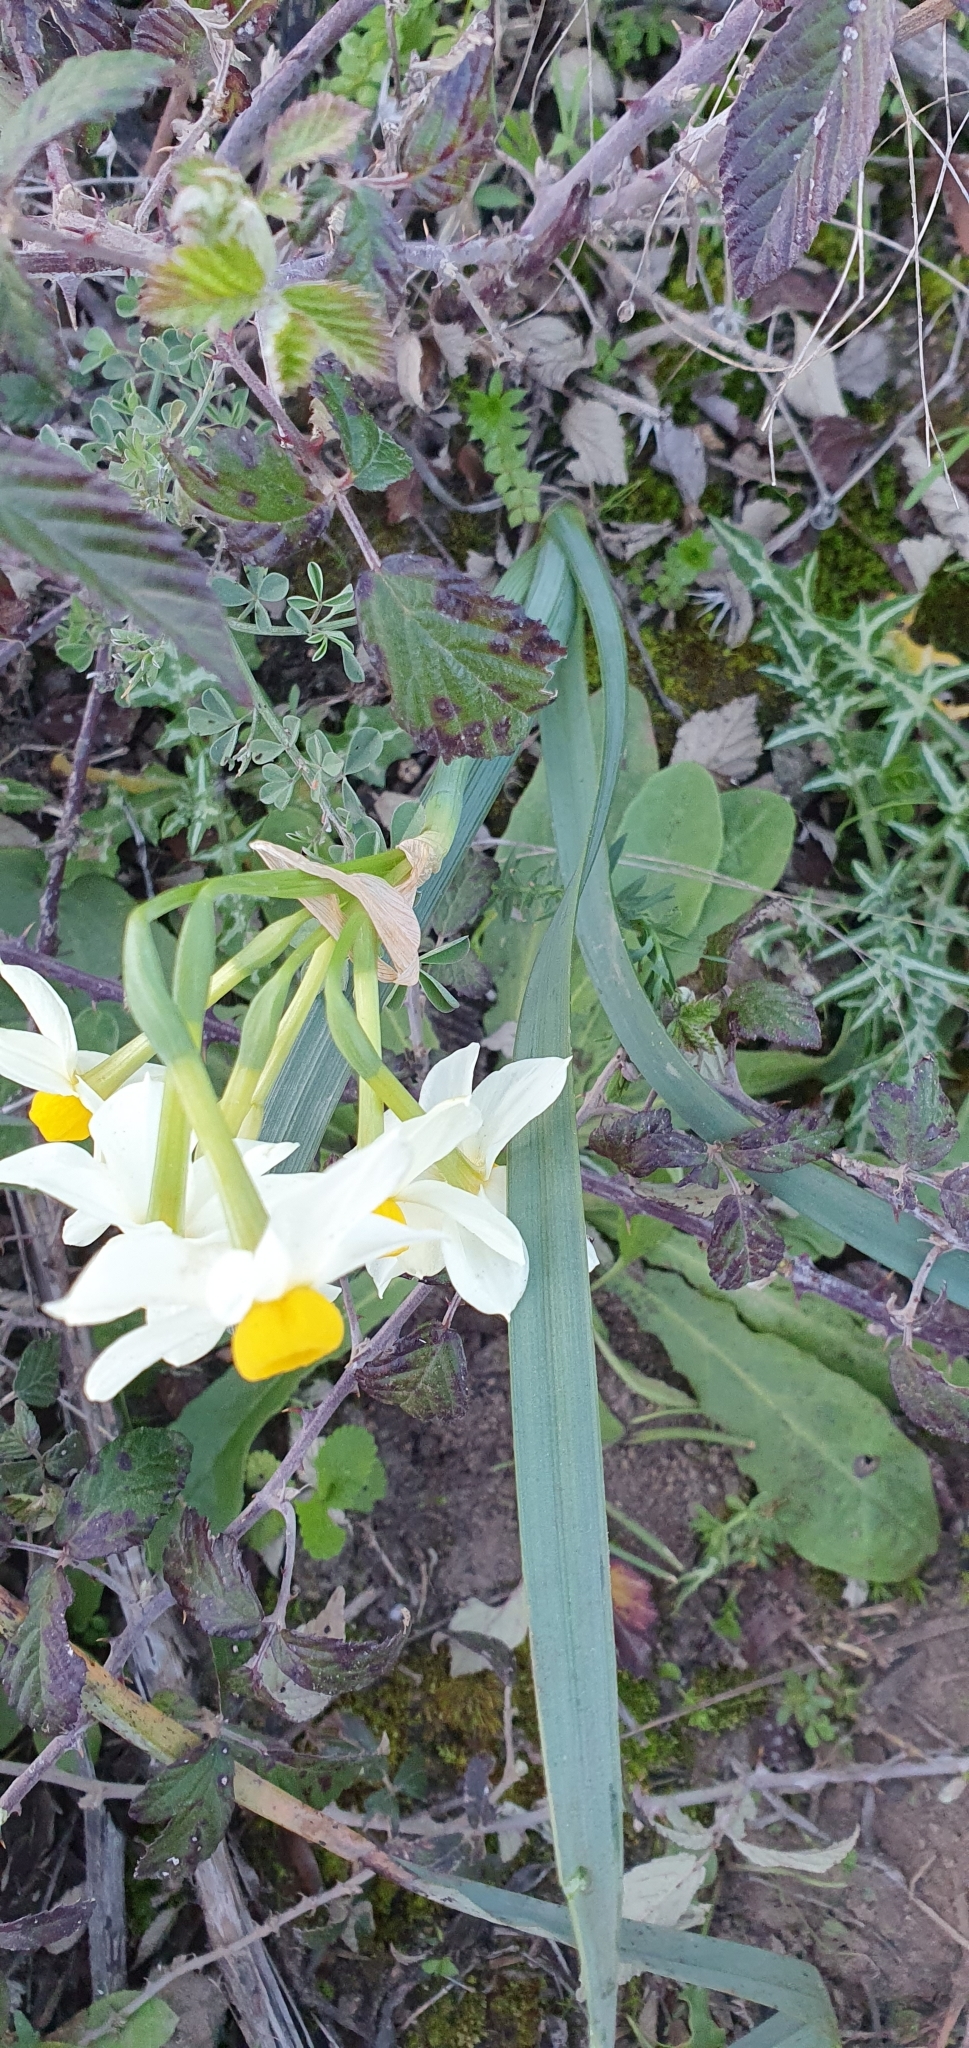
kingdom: Plantae
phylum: Tracheophyta
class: Liliopsida
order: Asparagales
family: Amaryllidaceae
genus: Narcissus
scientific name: Narcissus tazetta
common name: Bunch-flowered daffodil
